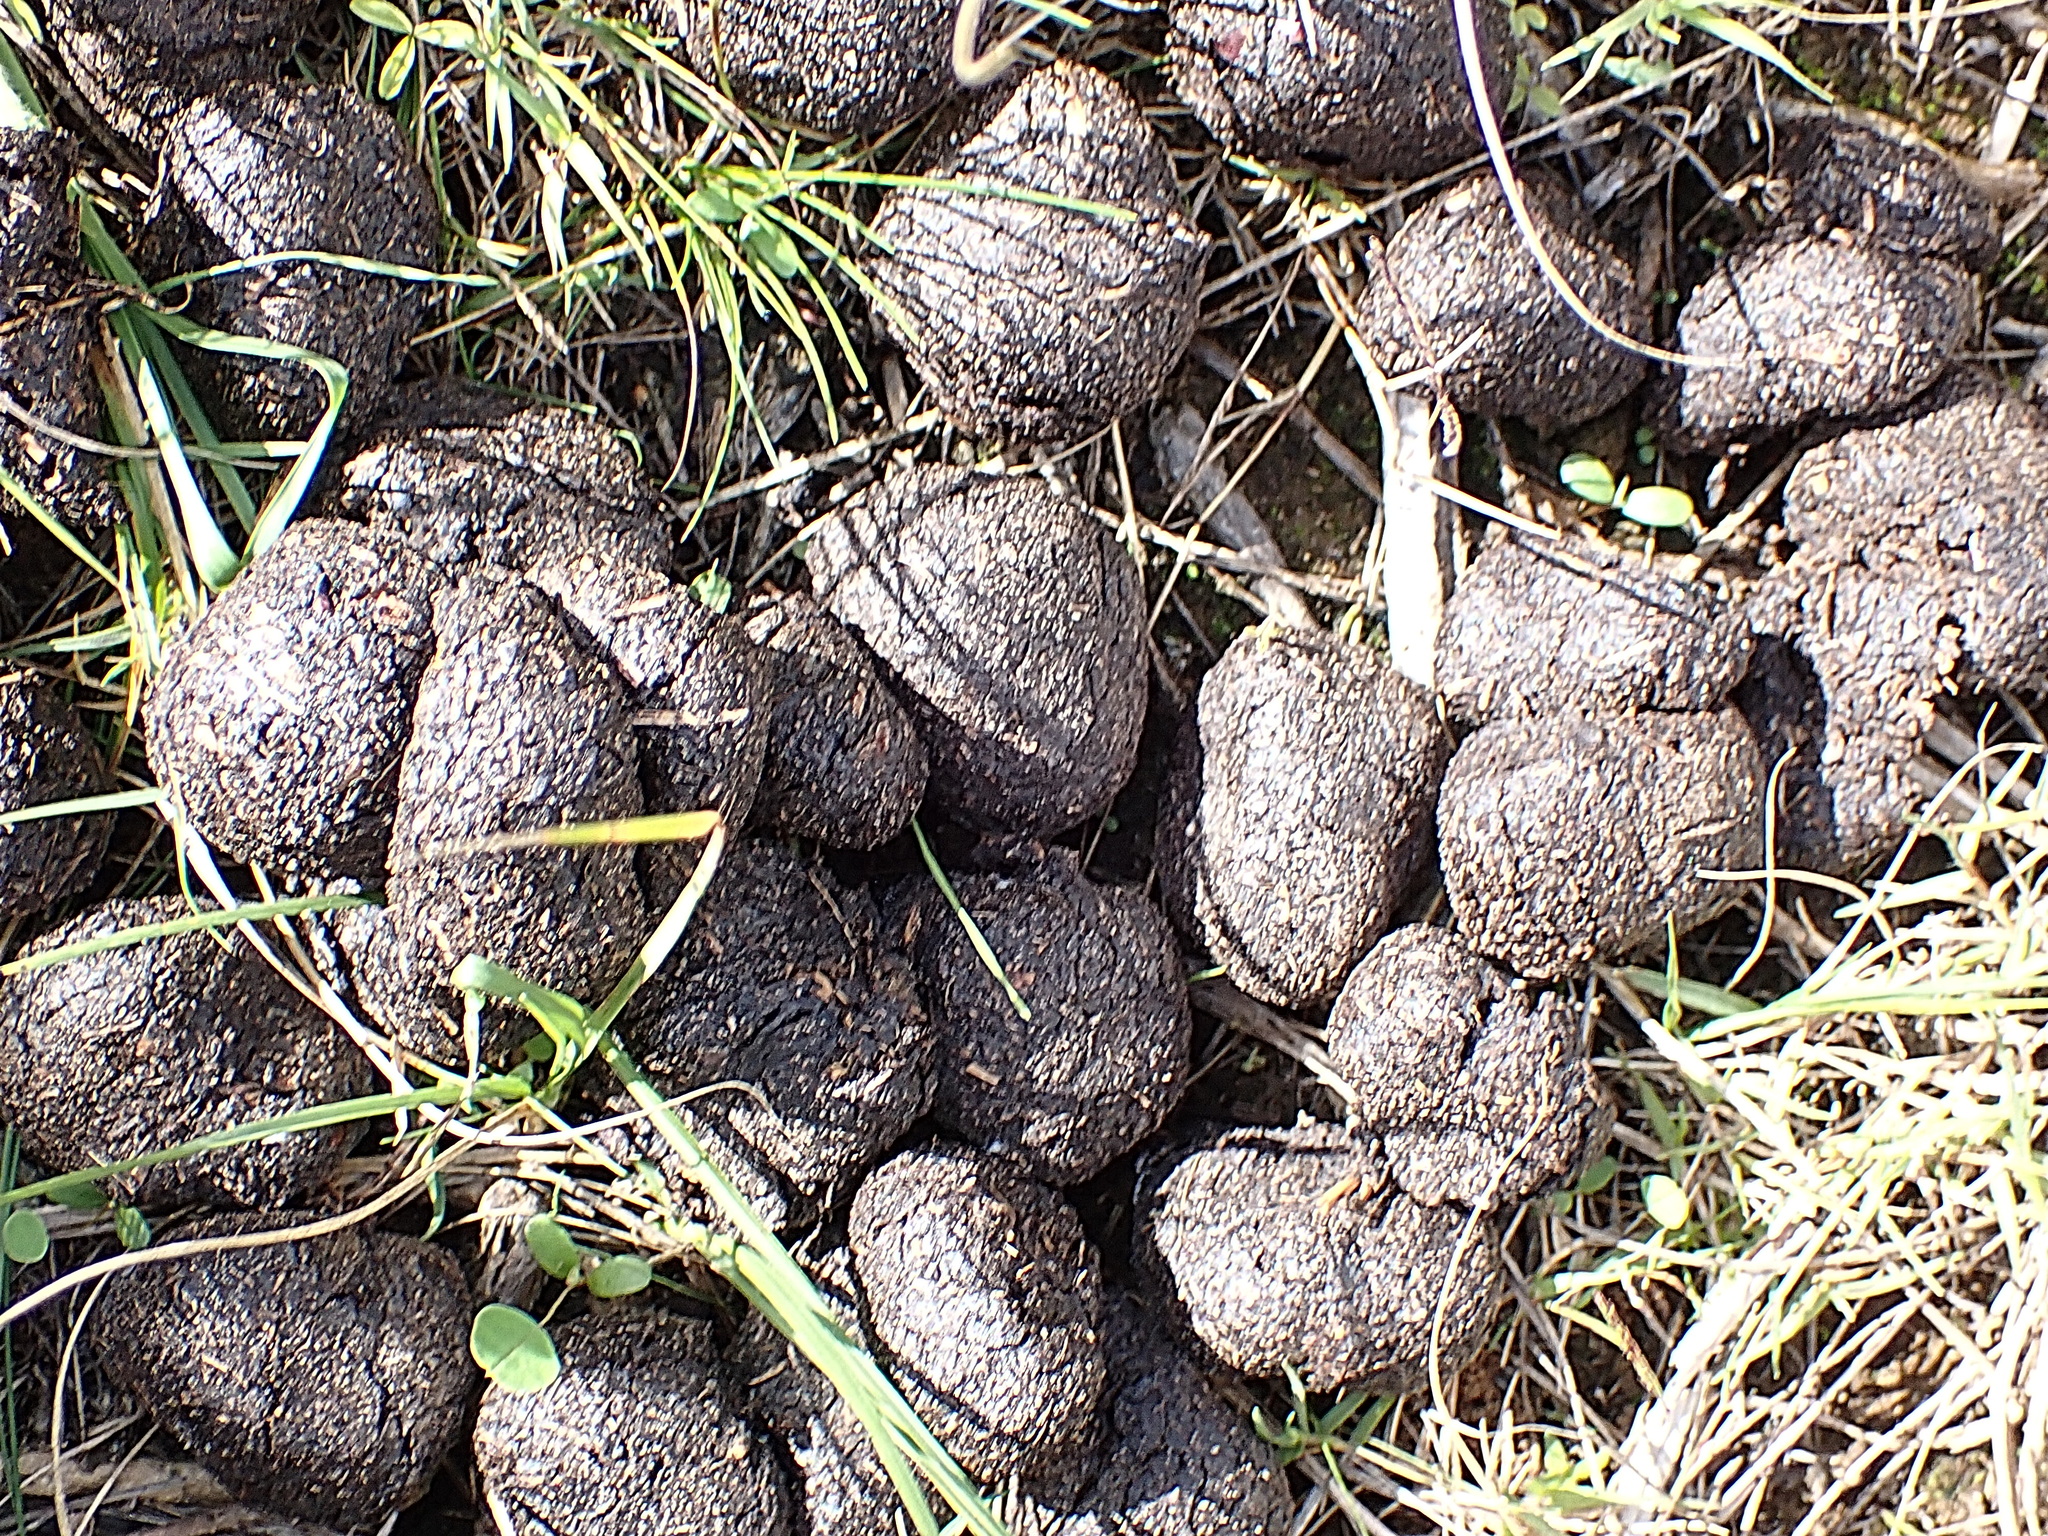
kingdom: Animalia
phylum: Chordata
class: Mammalia
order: Artiodactyla
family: Suidae
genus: Potamochoerus
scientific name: Potamochoerus larvatus
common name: Bushpig
